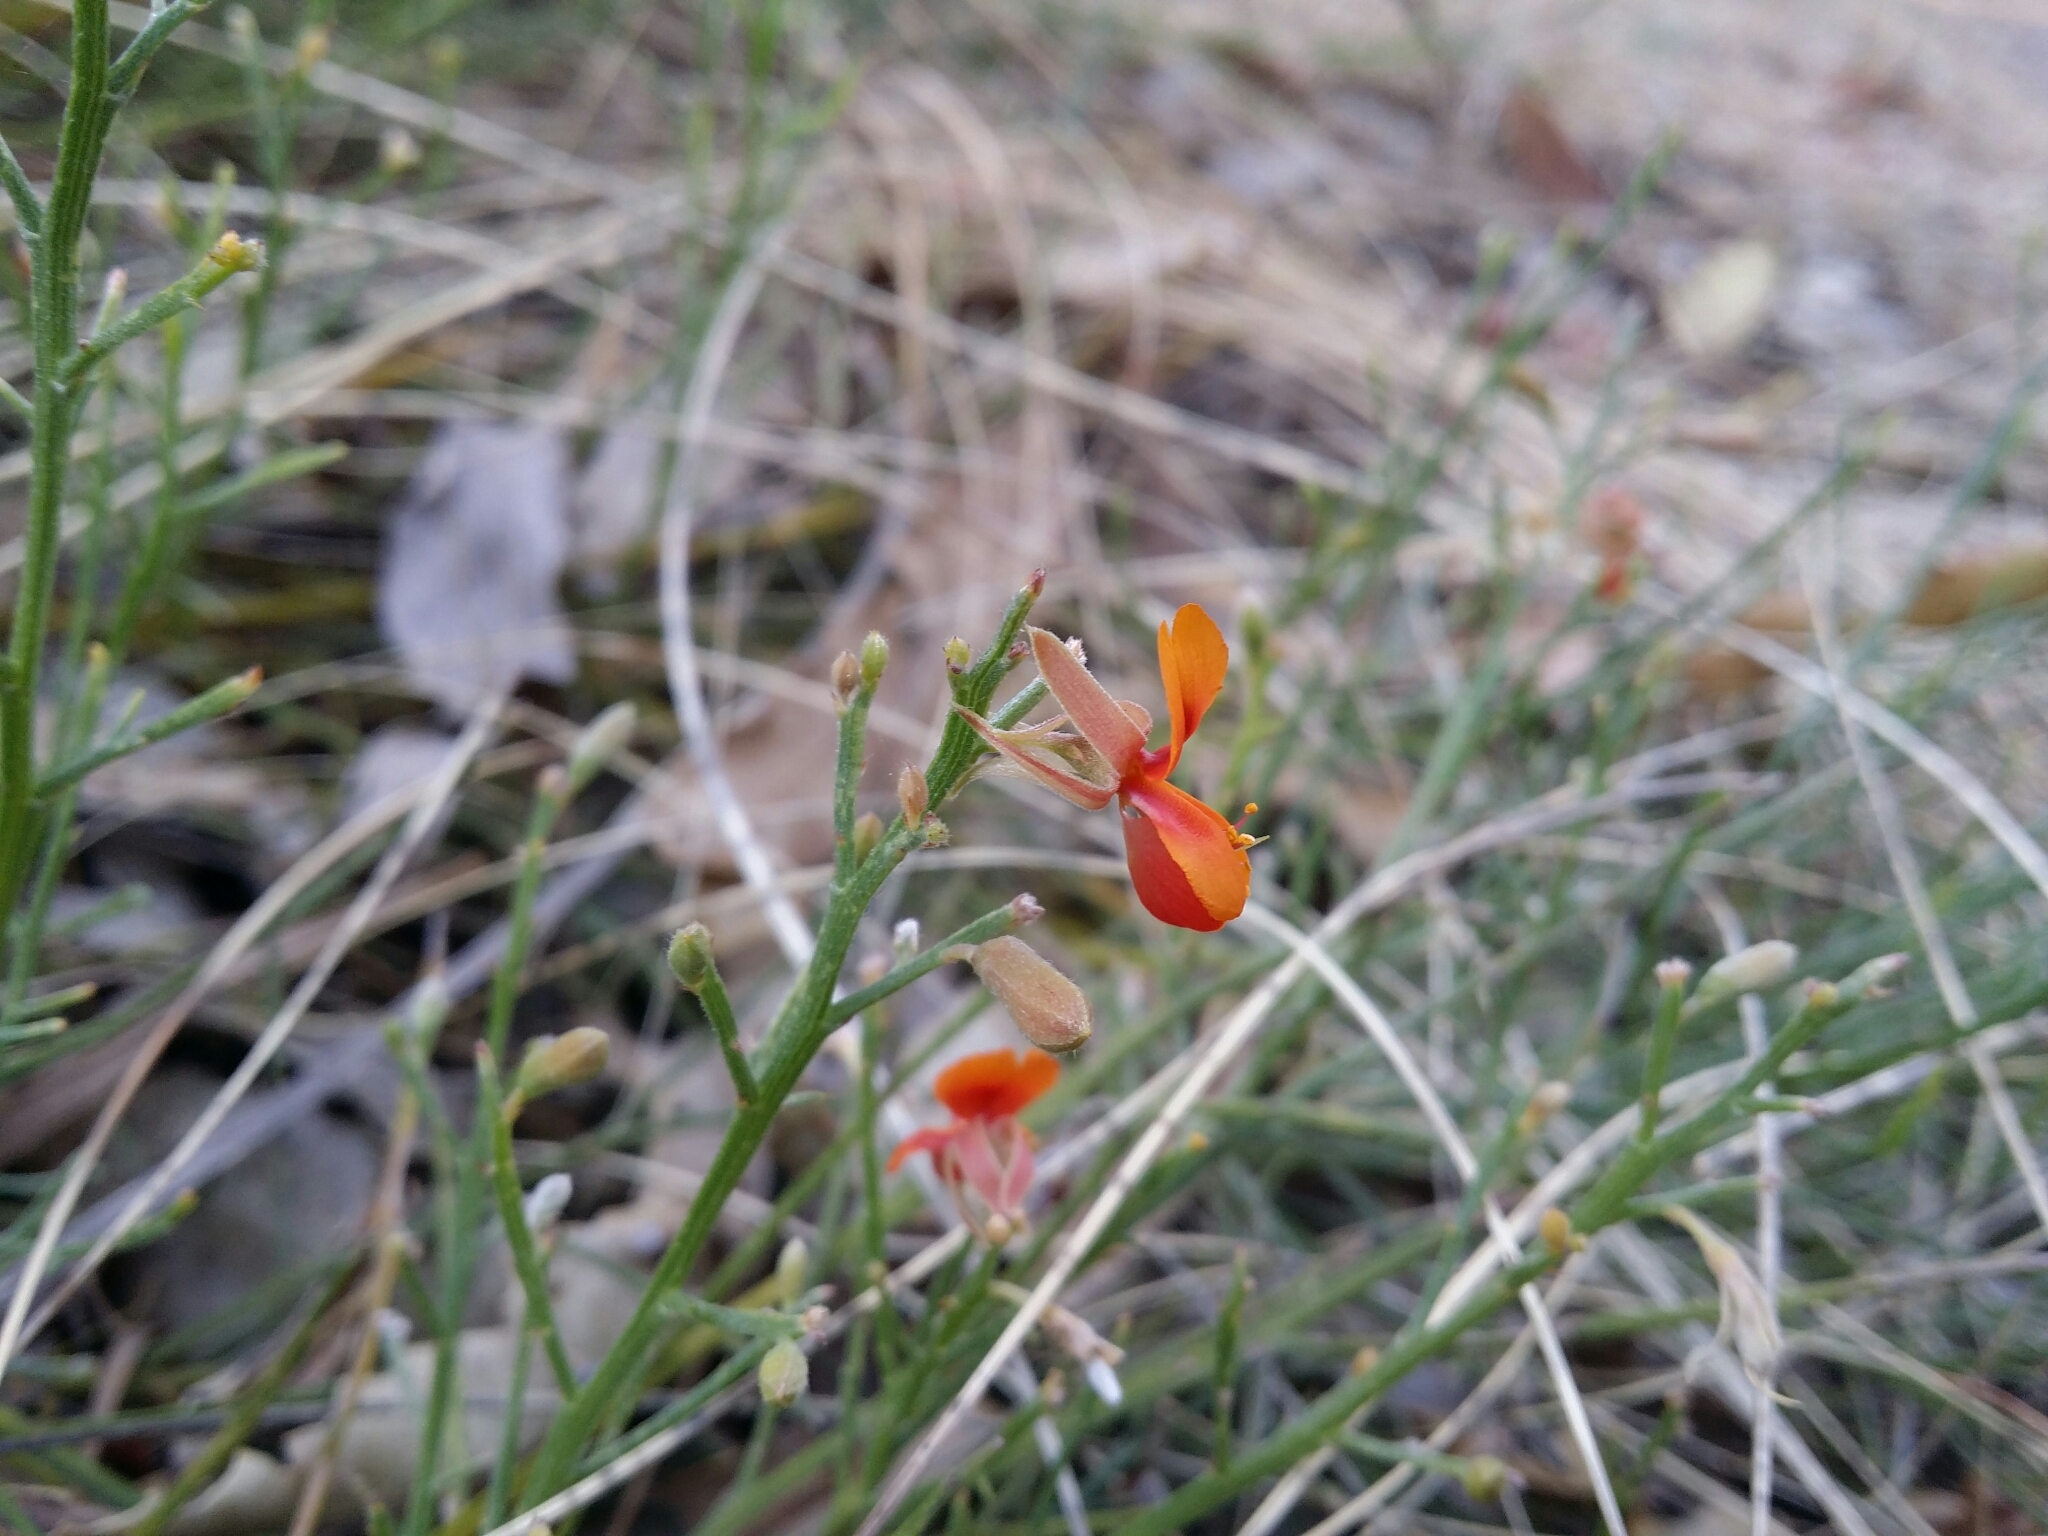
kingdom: Plantae
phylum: Tracheophyta
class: Magnoliopsida
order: Fabales
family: Fabaceae
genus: Jacksonia
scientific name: Jacksonia sericea
